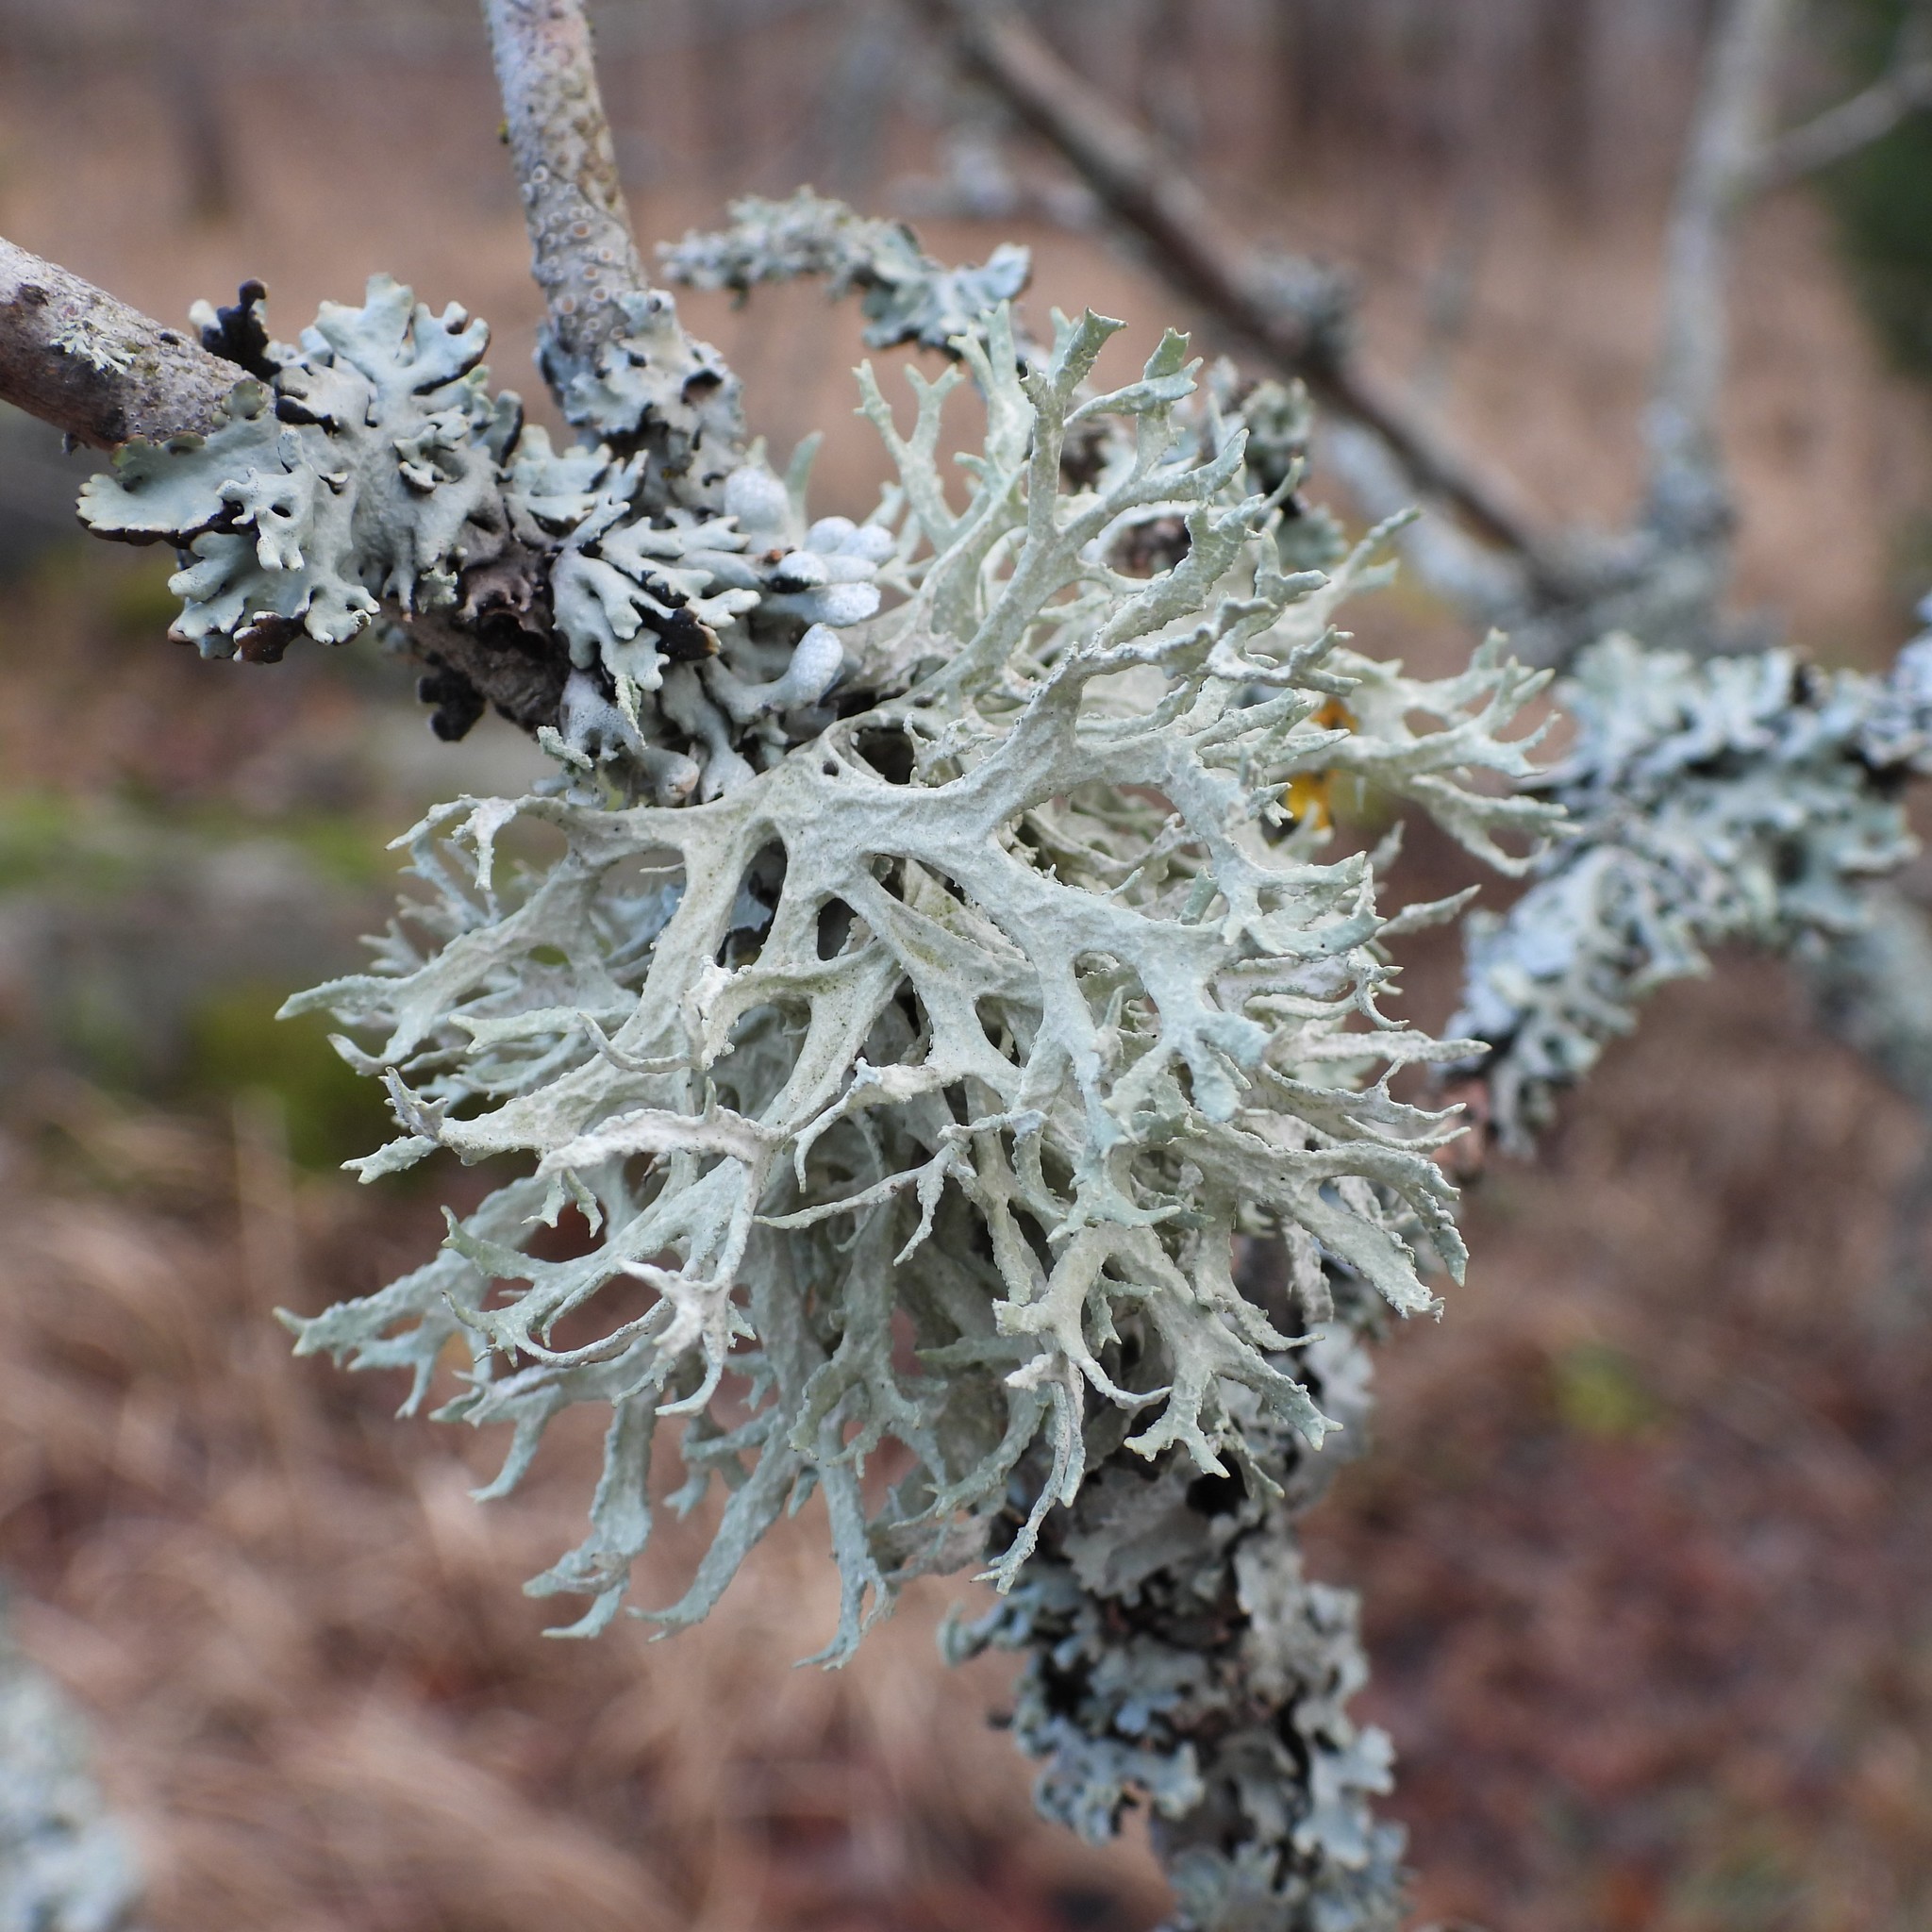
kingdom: Fungi
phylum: Ascomycota
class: Lecanoromycetes
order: Lecanorales
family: Parmeliaceae
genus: Evernia
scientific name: Evernia prunastri
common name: Oak moss
